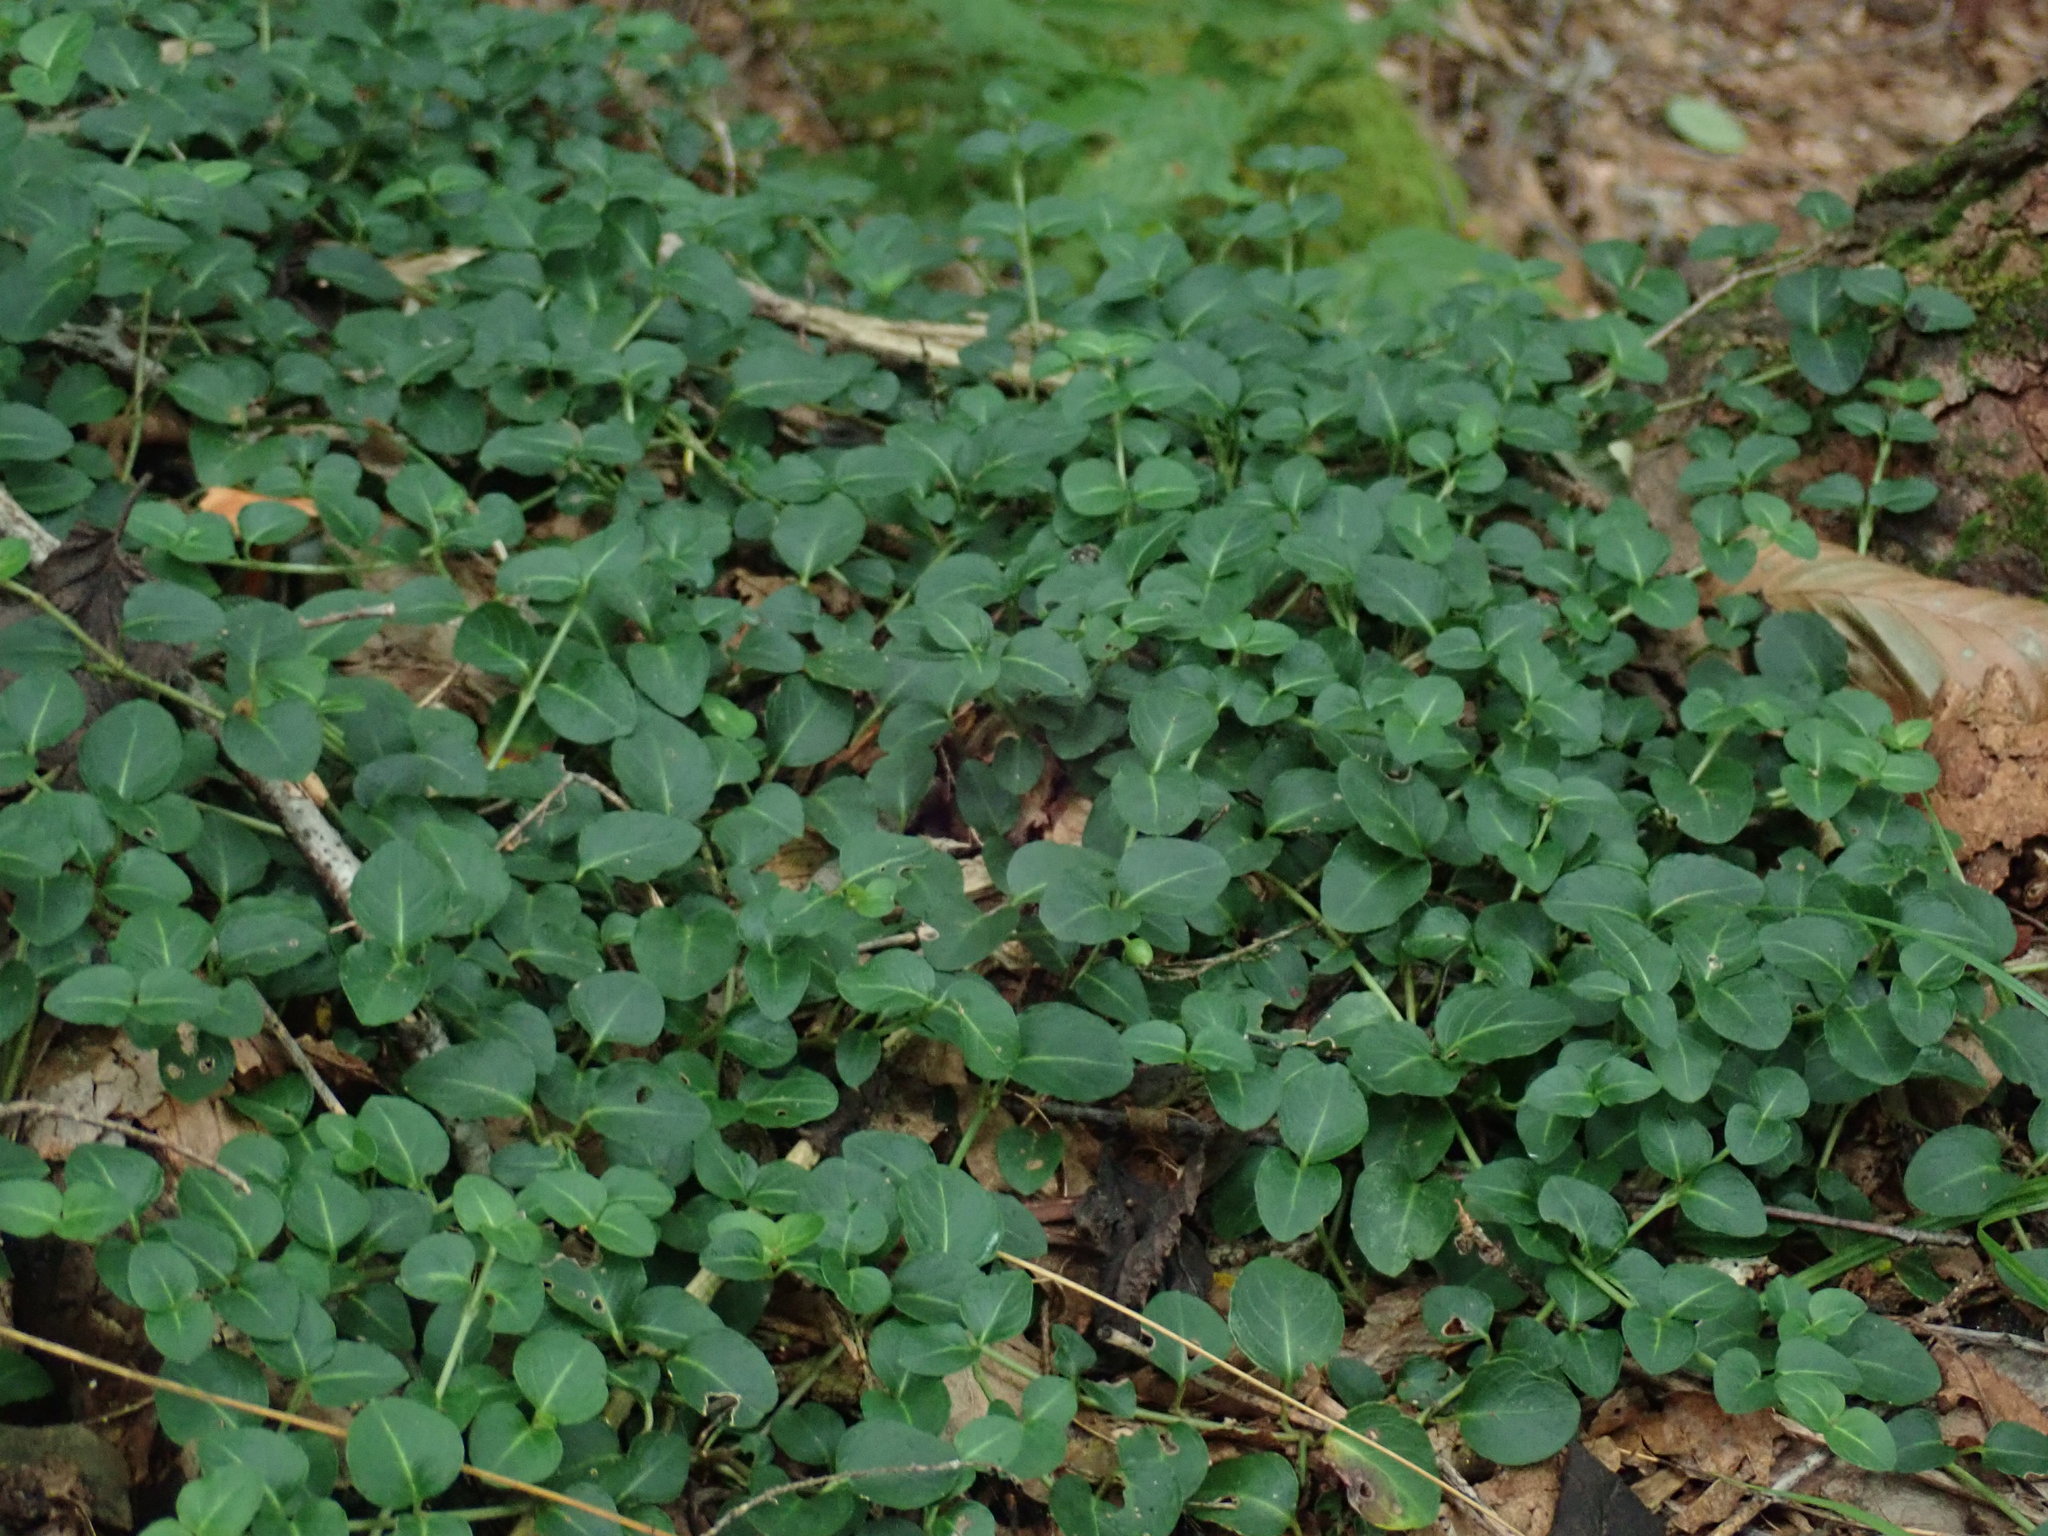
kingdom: Plantae
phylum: Tracheophyta
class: Magnoliopsida
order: Gentianales
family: Rubiaceae
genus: Mitchella
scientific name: Mitchella repens
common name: Partridge-berry
